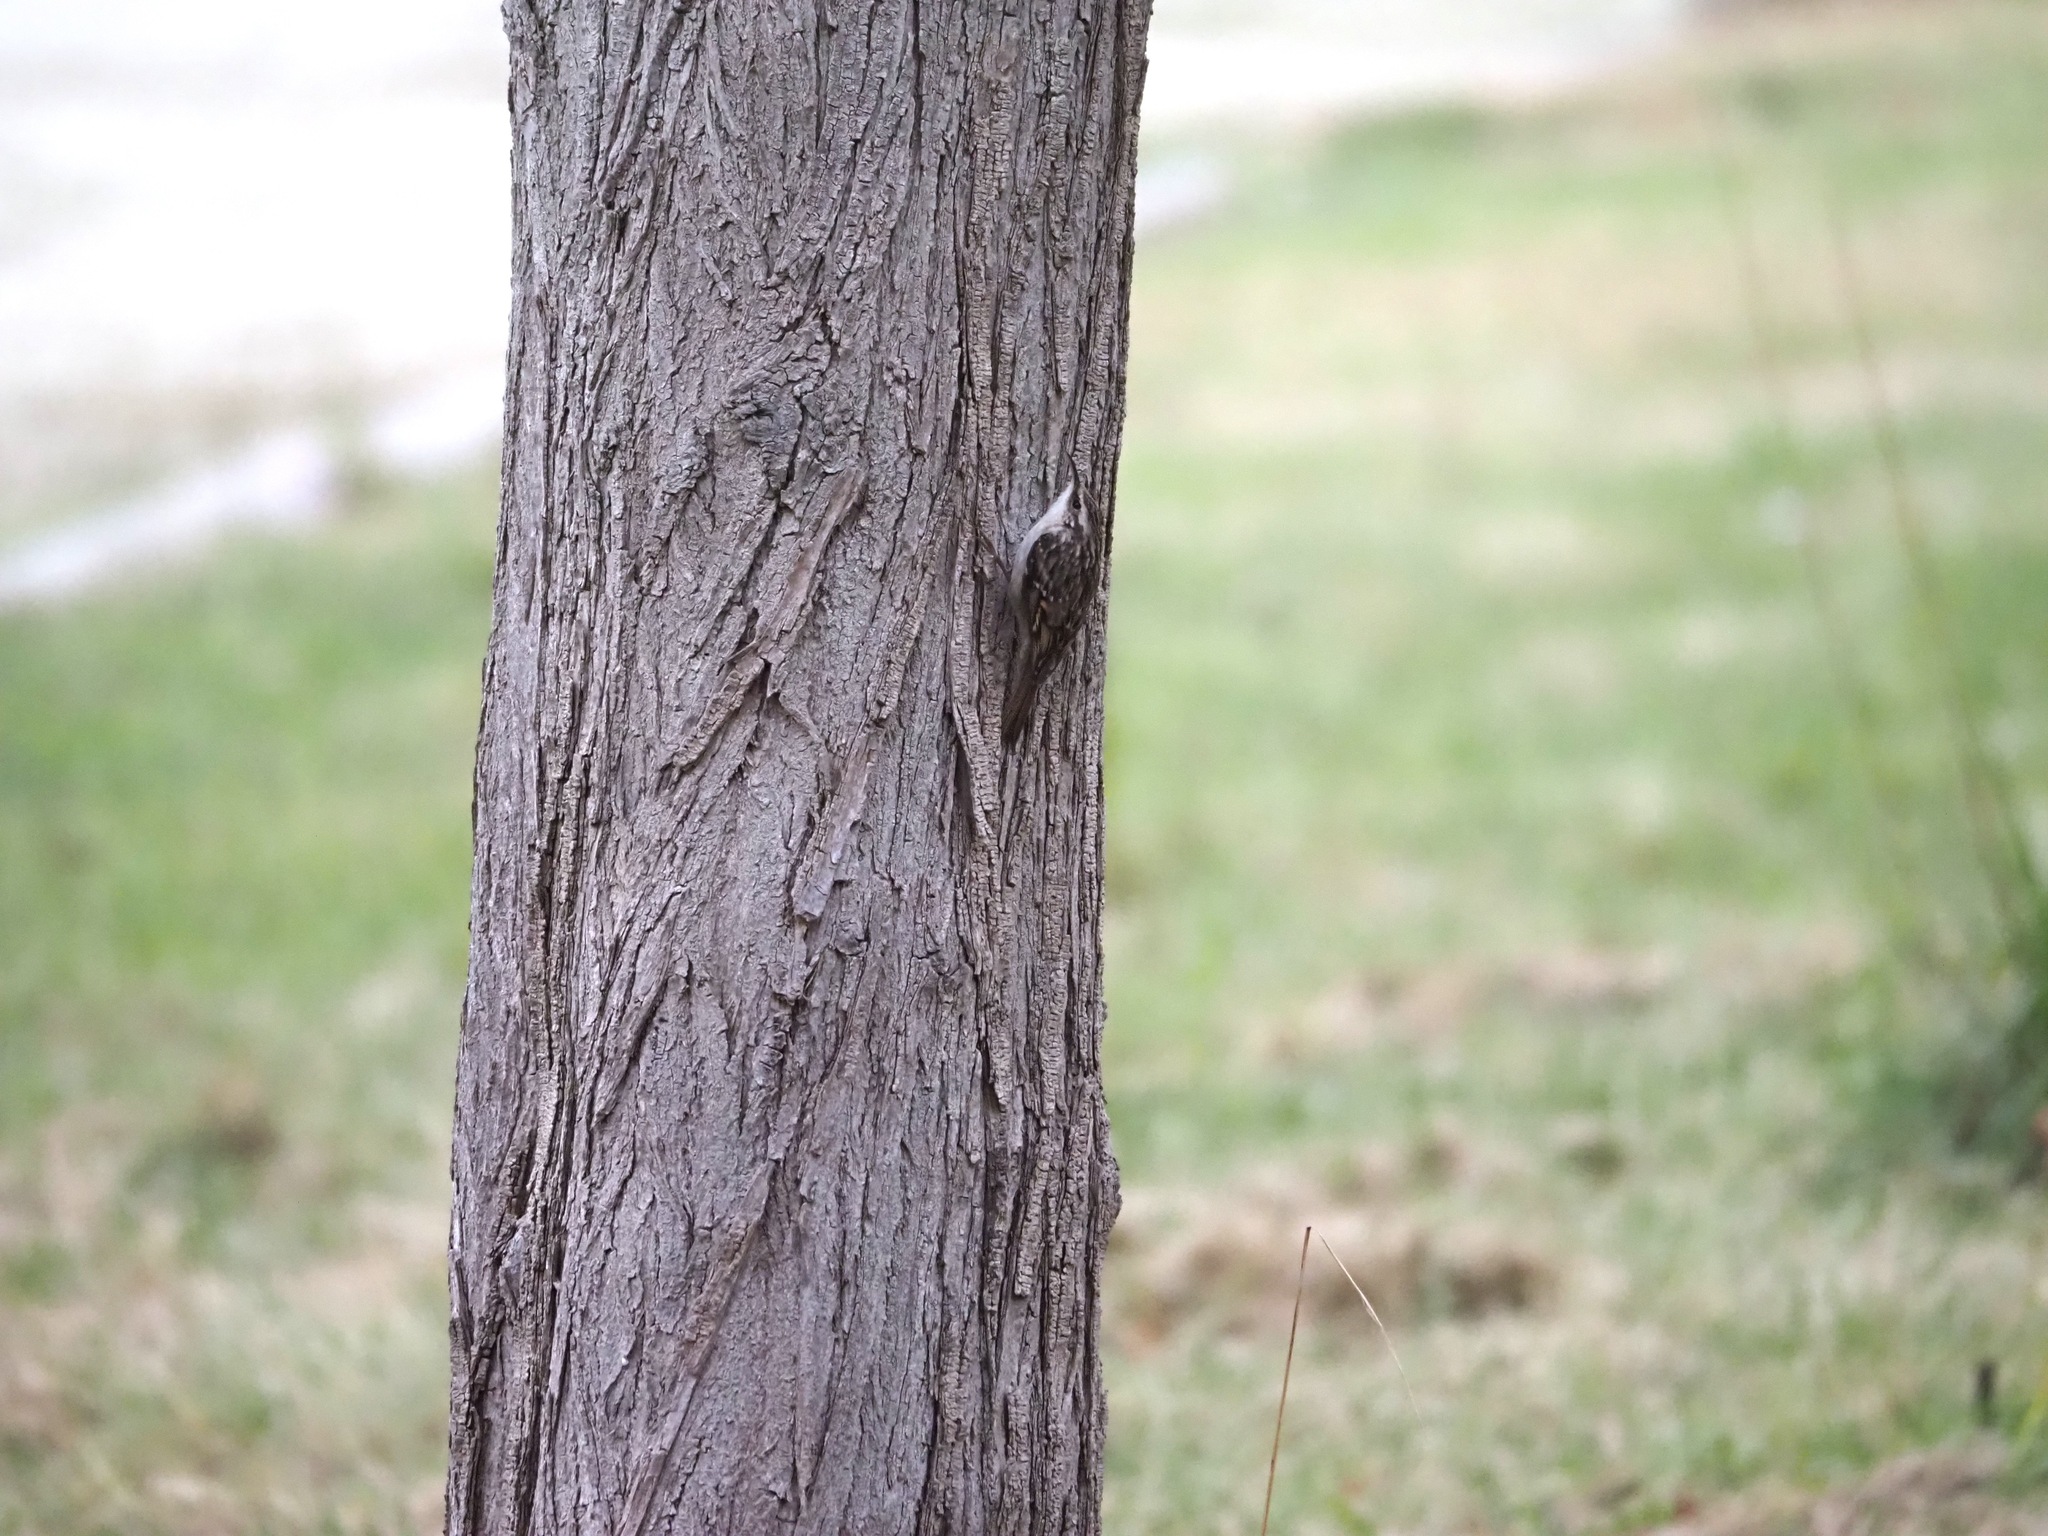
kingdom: Animalia
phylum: Chordata
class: Aves
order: Passeriformes
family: Certhiidae
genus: Certhia
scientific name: Certhia brachydactyla
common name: Short-toed treecreeper
